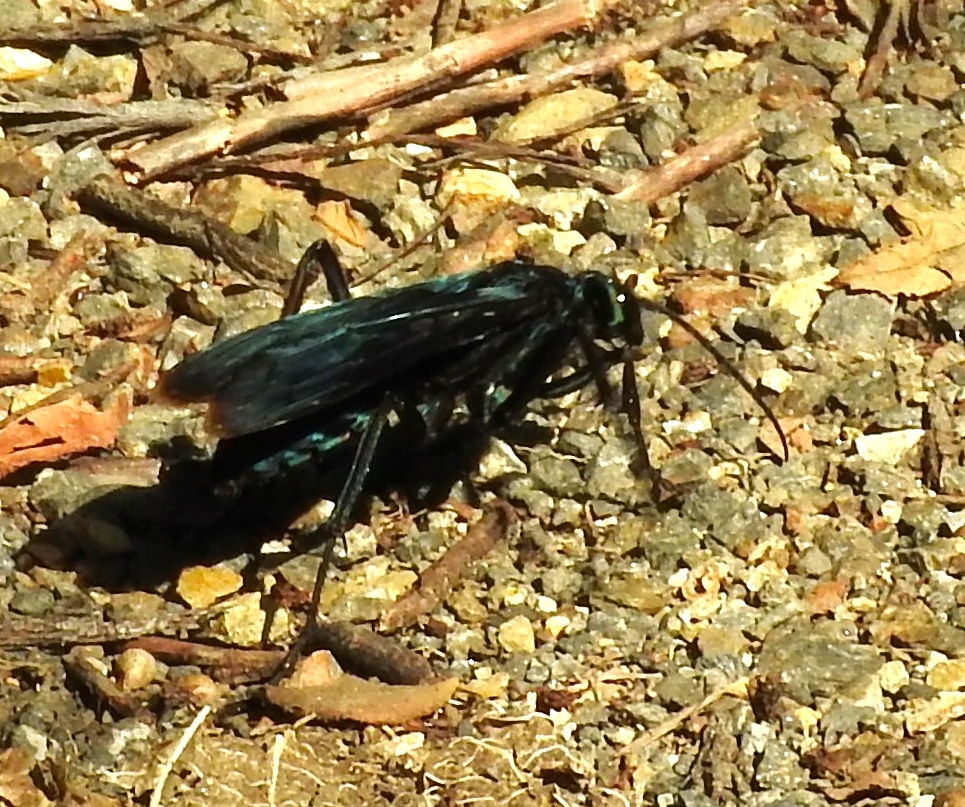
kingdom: Animalia
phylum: Arthropoda
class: Insecta
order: Hymenoptera
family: Pompilidae
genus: Pepsis
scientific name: Pepsis mexicana
